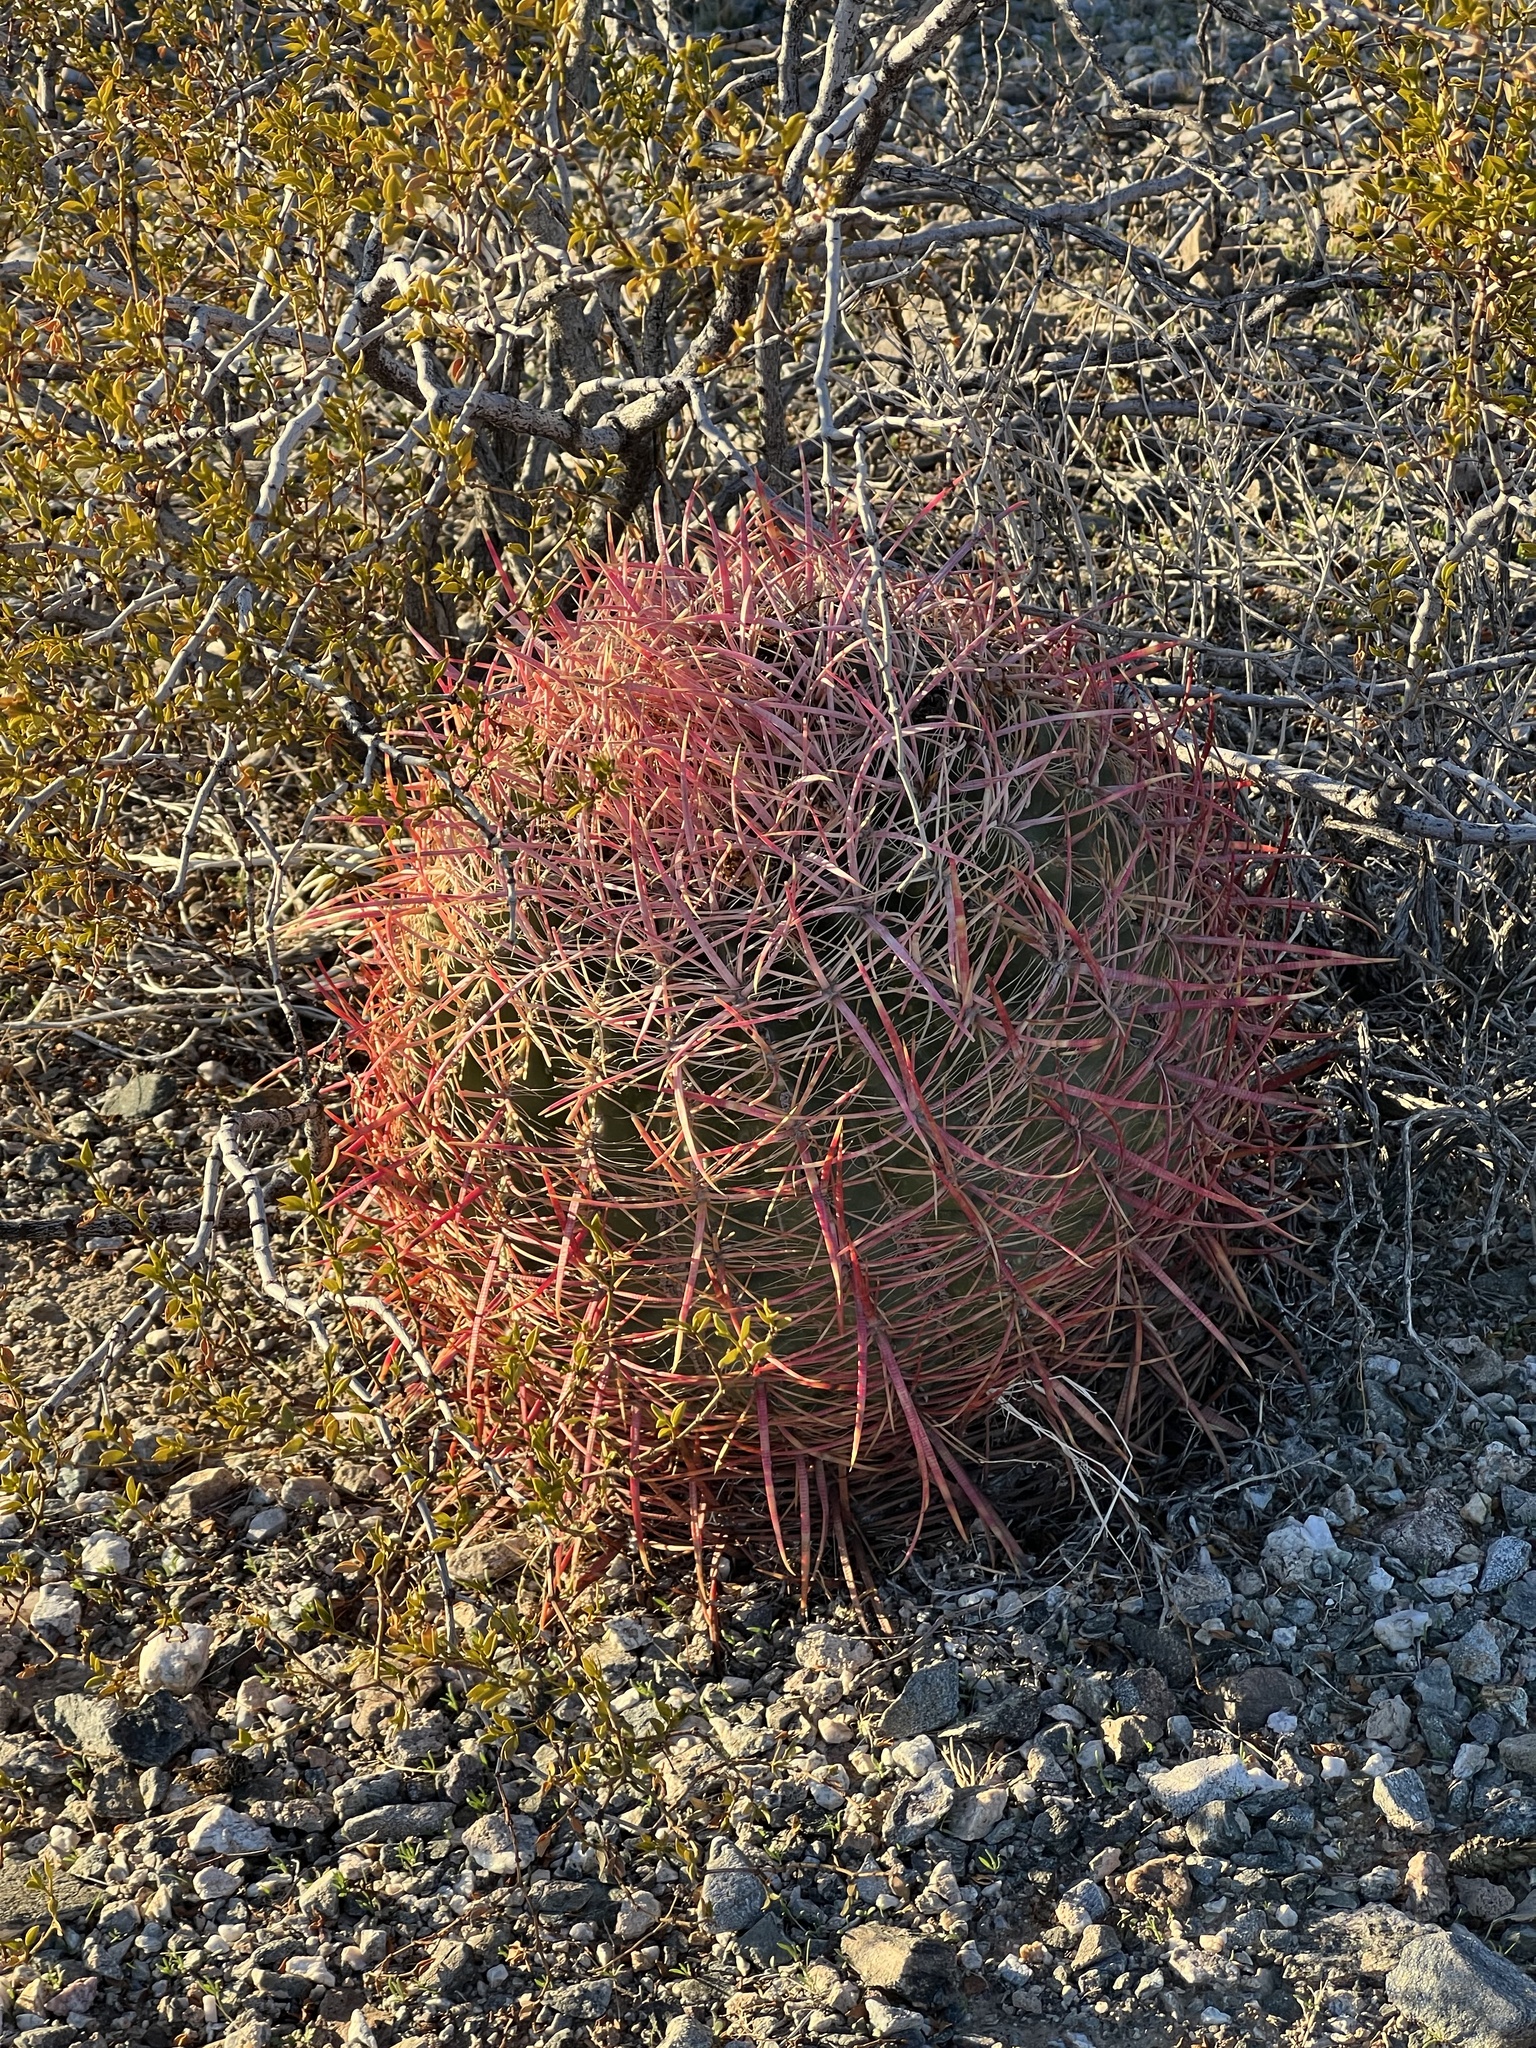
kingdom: Plantae
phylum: Tracheophyta
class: Magnoliopsida
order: Caryophyllales
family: Cactaceae
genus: Ferocactus
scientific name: Ferocactus cylindraceus
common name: California barrel cactus
